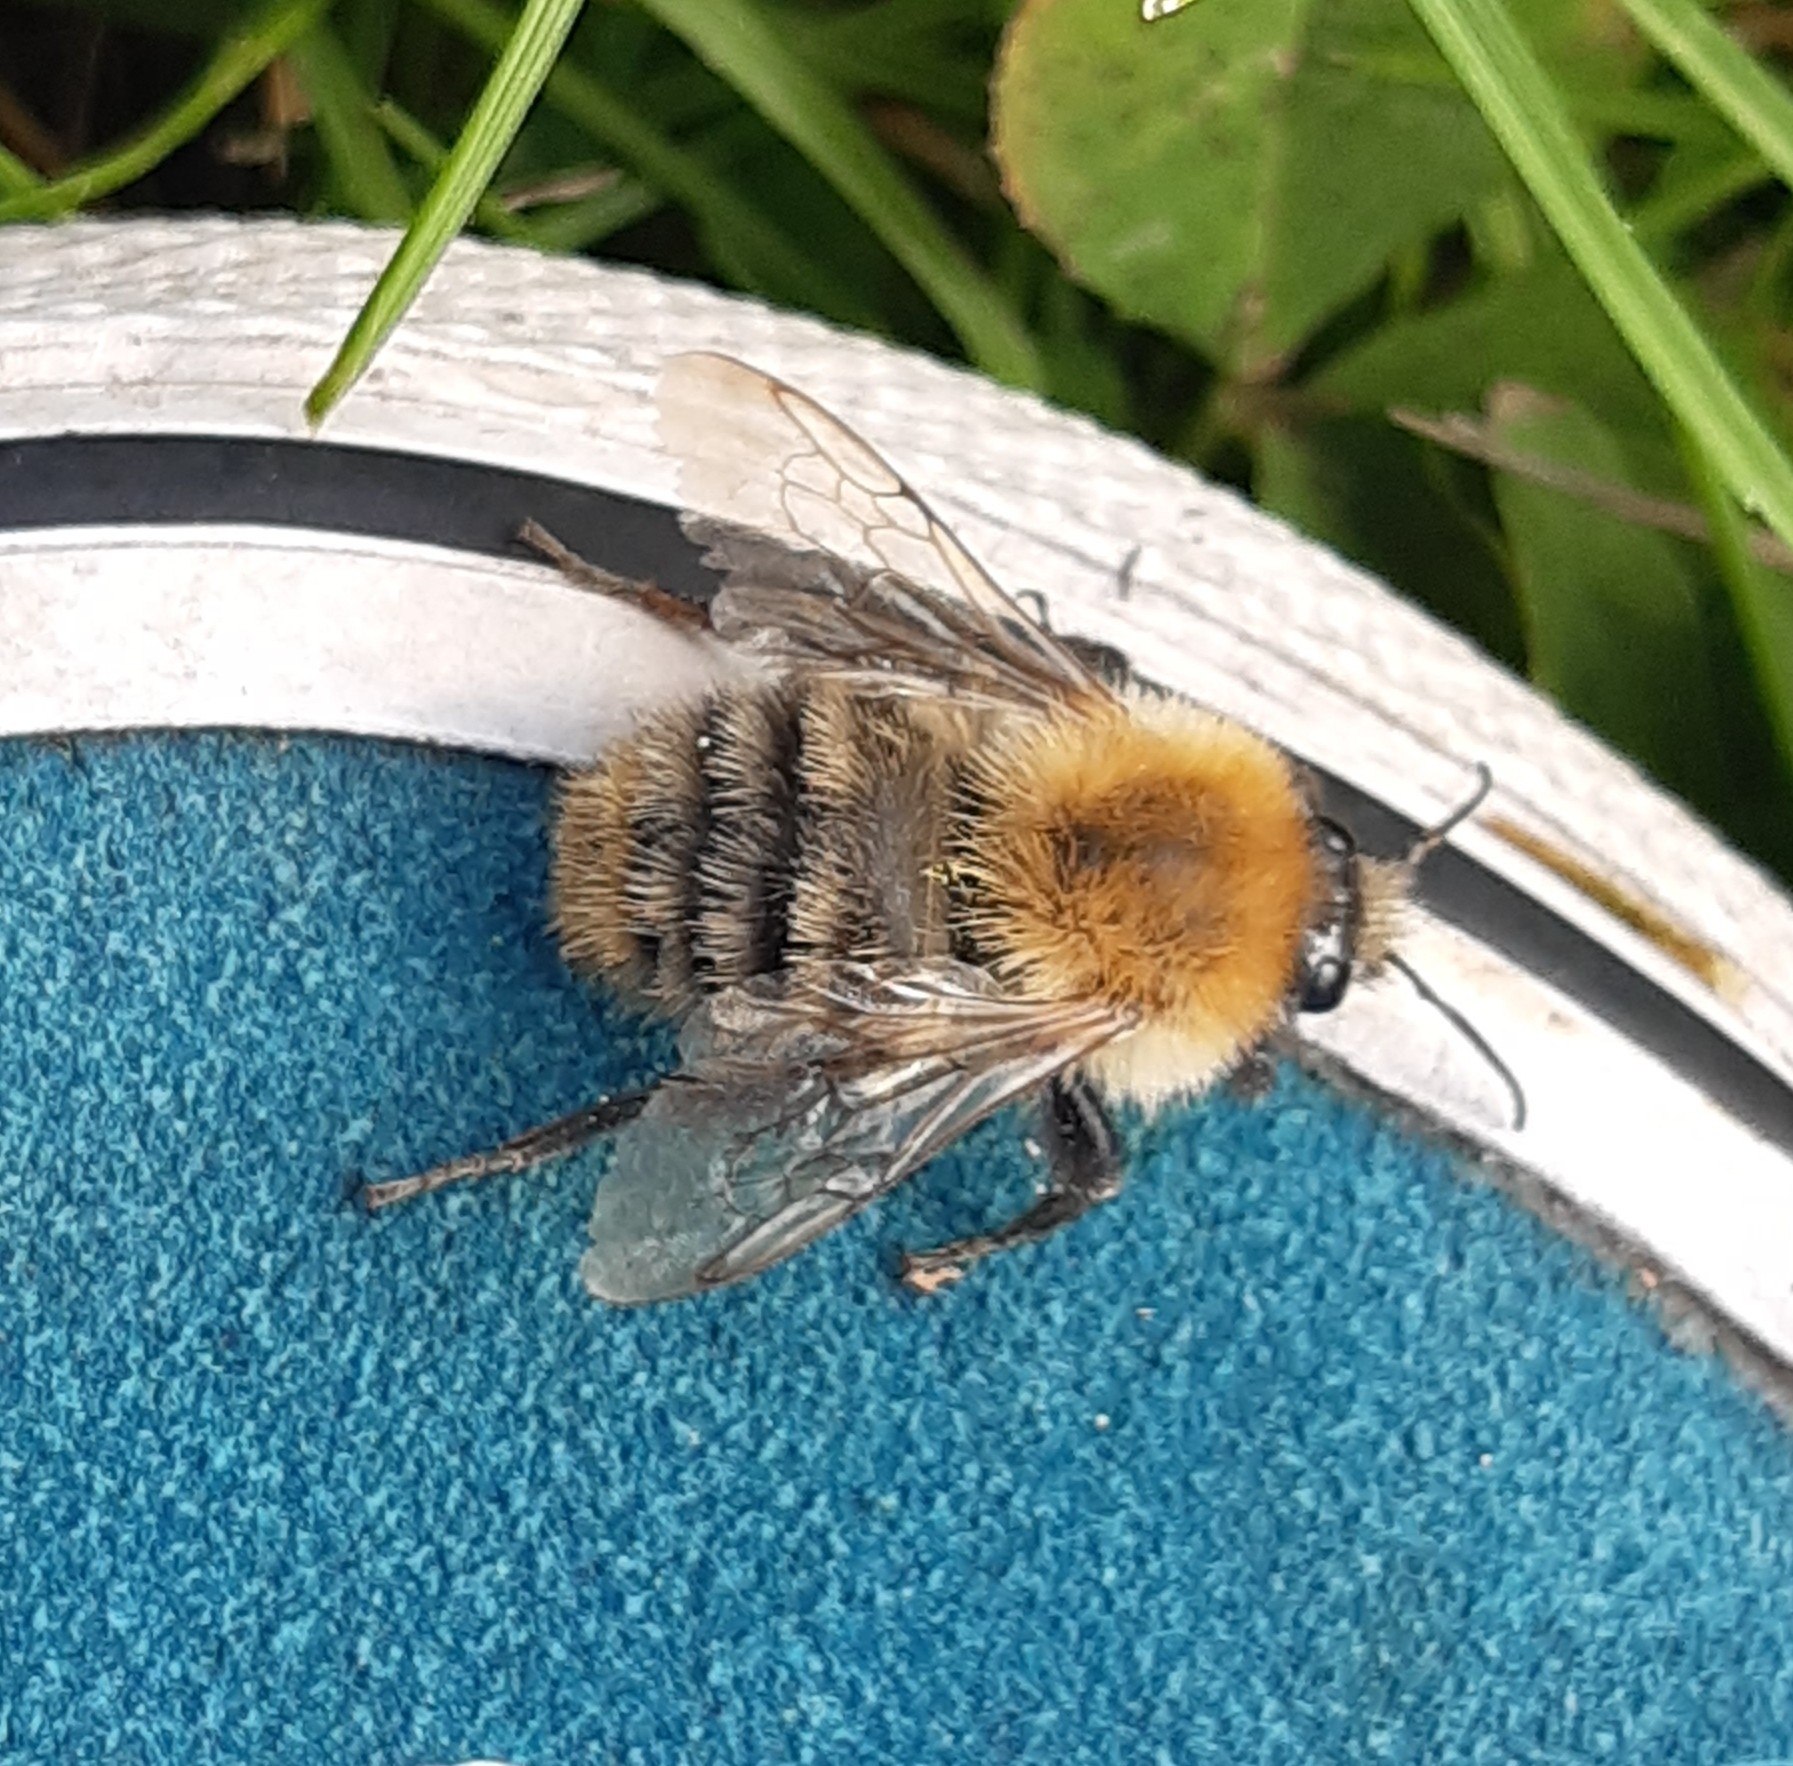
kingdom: Animalia
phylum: Arthropoda
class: Insecta
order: Hymenoptera
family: Apidae
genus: Bombus
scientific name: Bombus pascuorum
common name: Common carder bee
